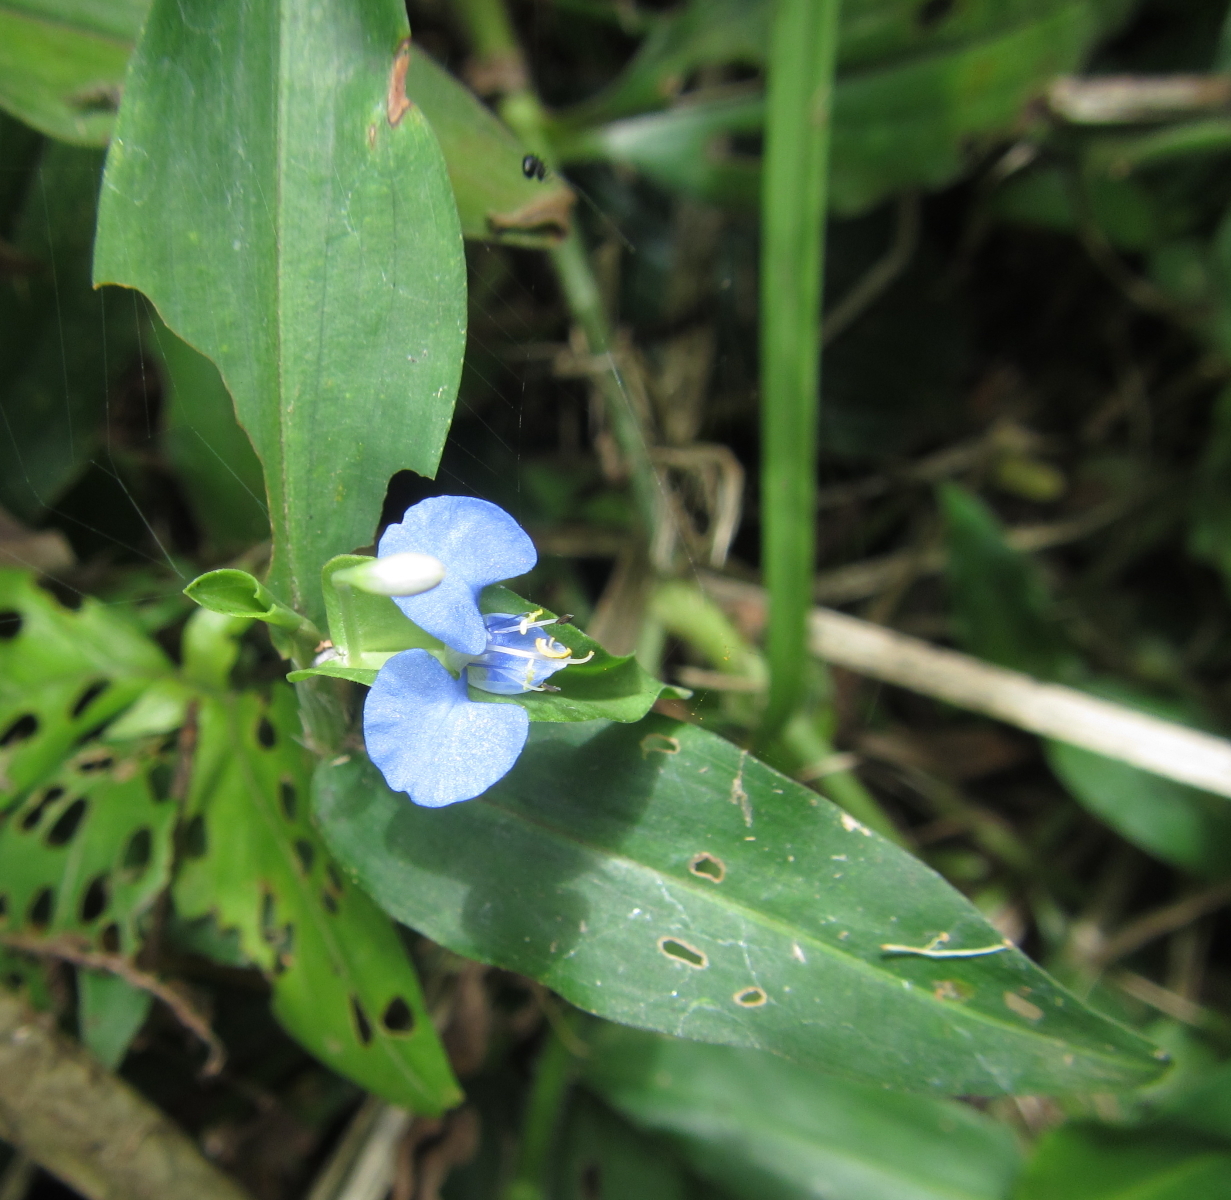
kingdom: Plantae
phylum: Tracheophyta
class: Liliopsida
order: Commelinales
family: Commelinaceae
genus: Commelina
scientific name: Commelina erecta
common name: Blousel blommetjie
